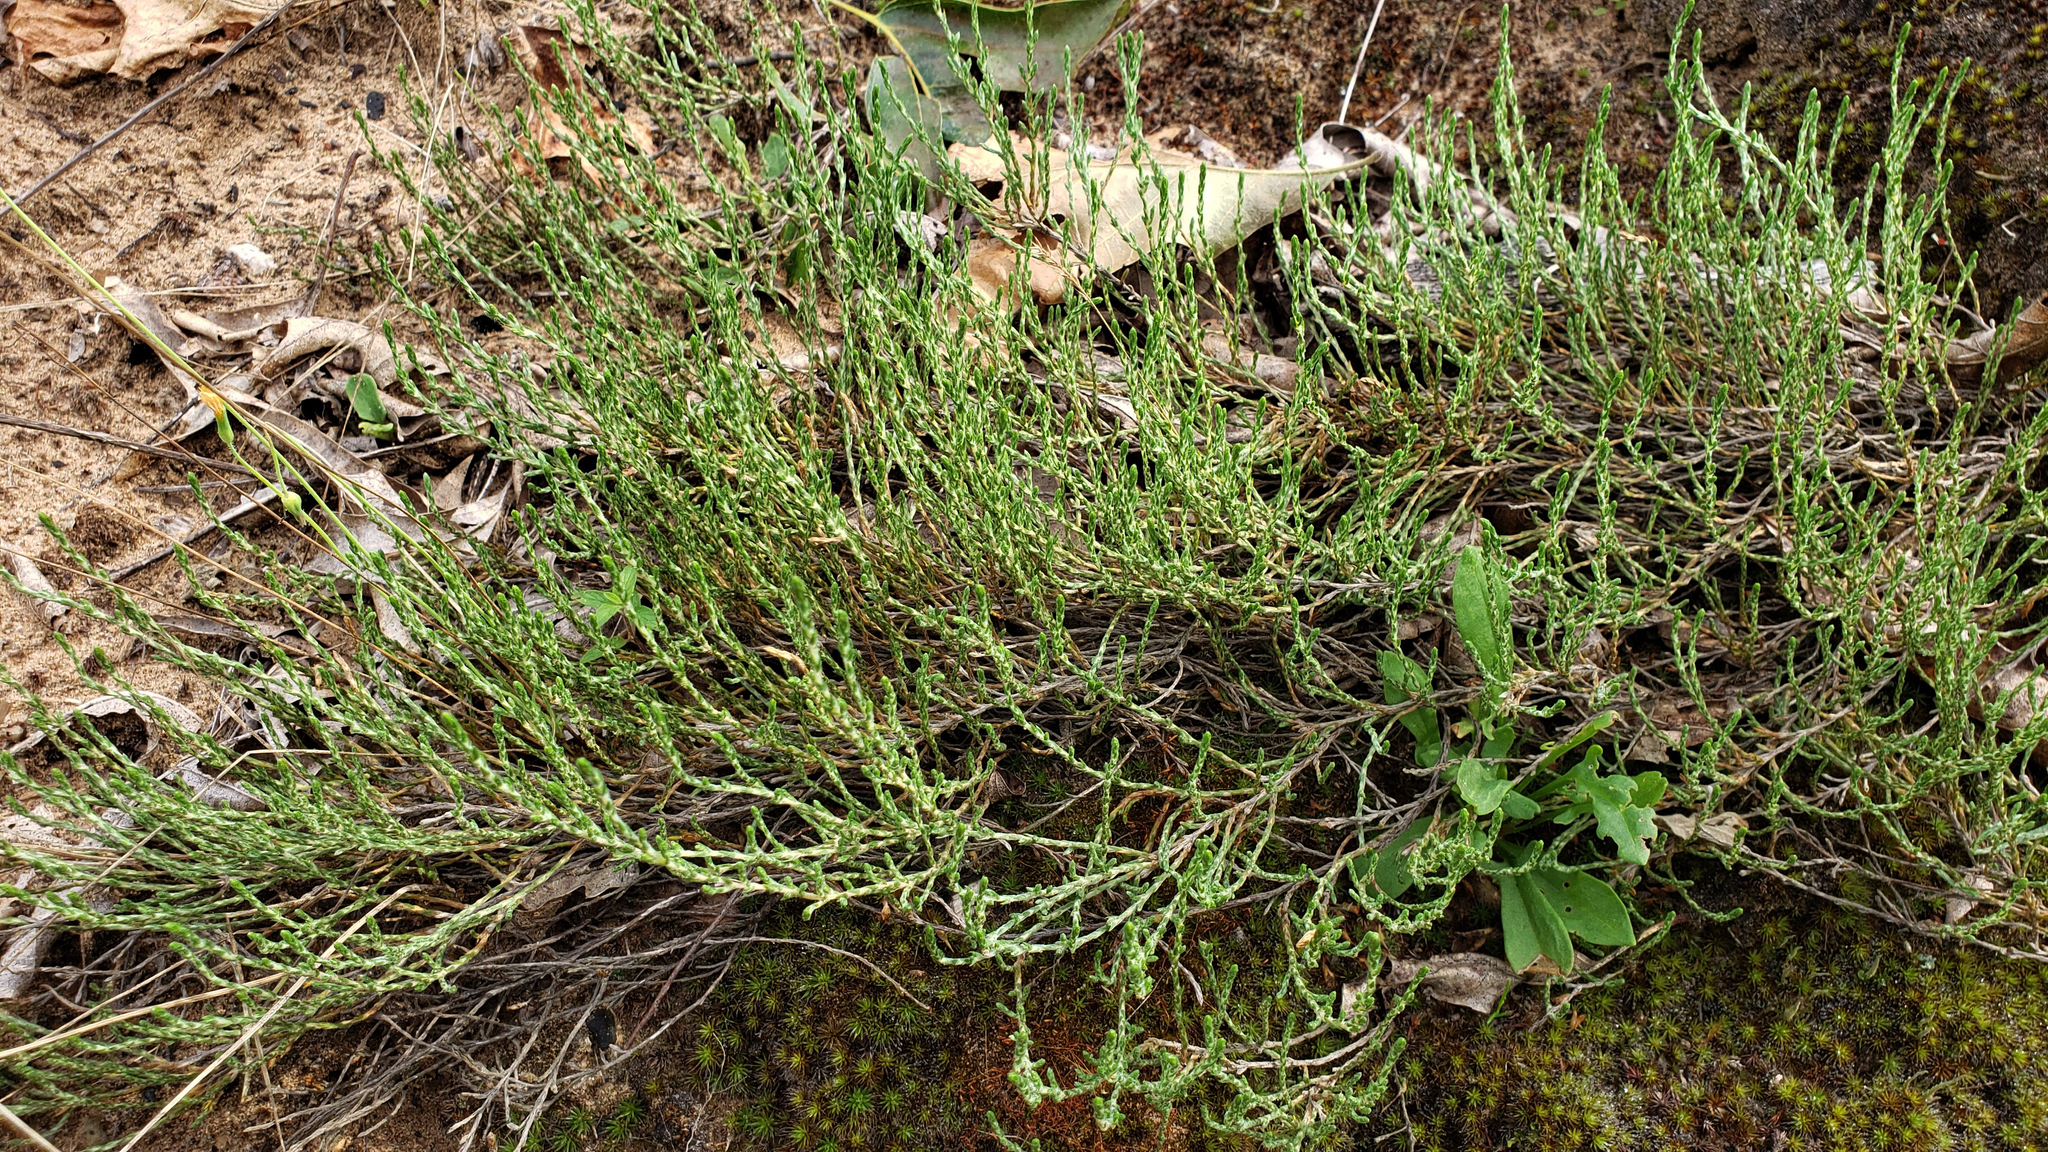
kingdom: Plantae
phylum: Tracheophyta
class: Magnoliopsida
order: Malvales
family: Cistaceae
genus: Hudsonia
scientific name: Hudsonia tomentosa
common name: Beach-heath
